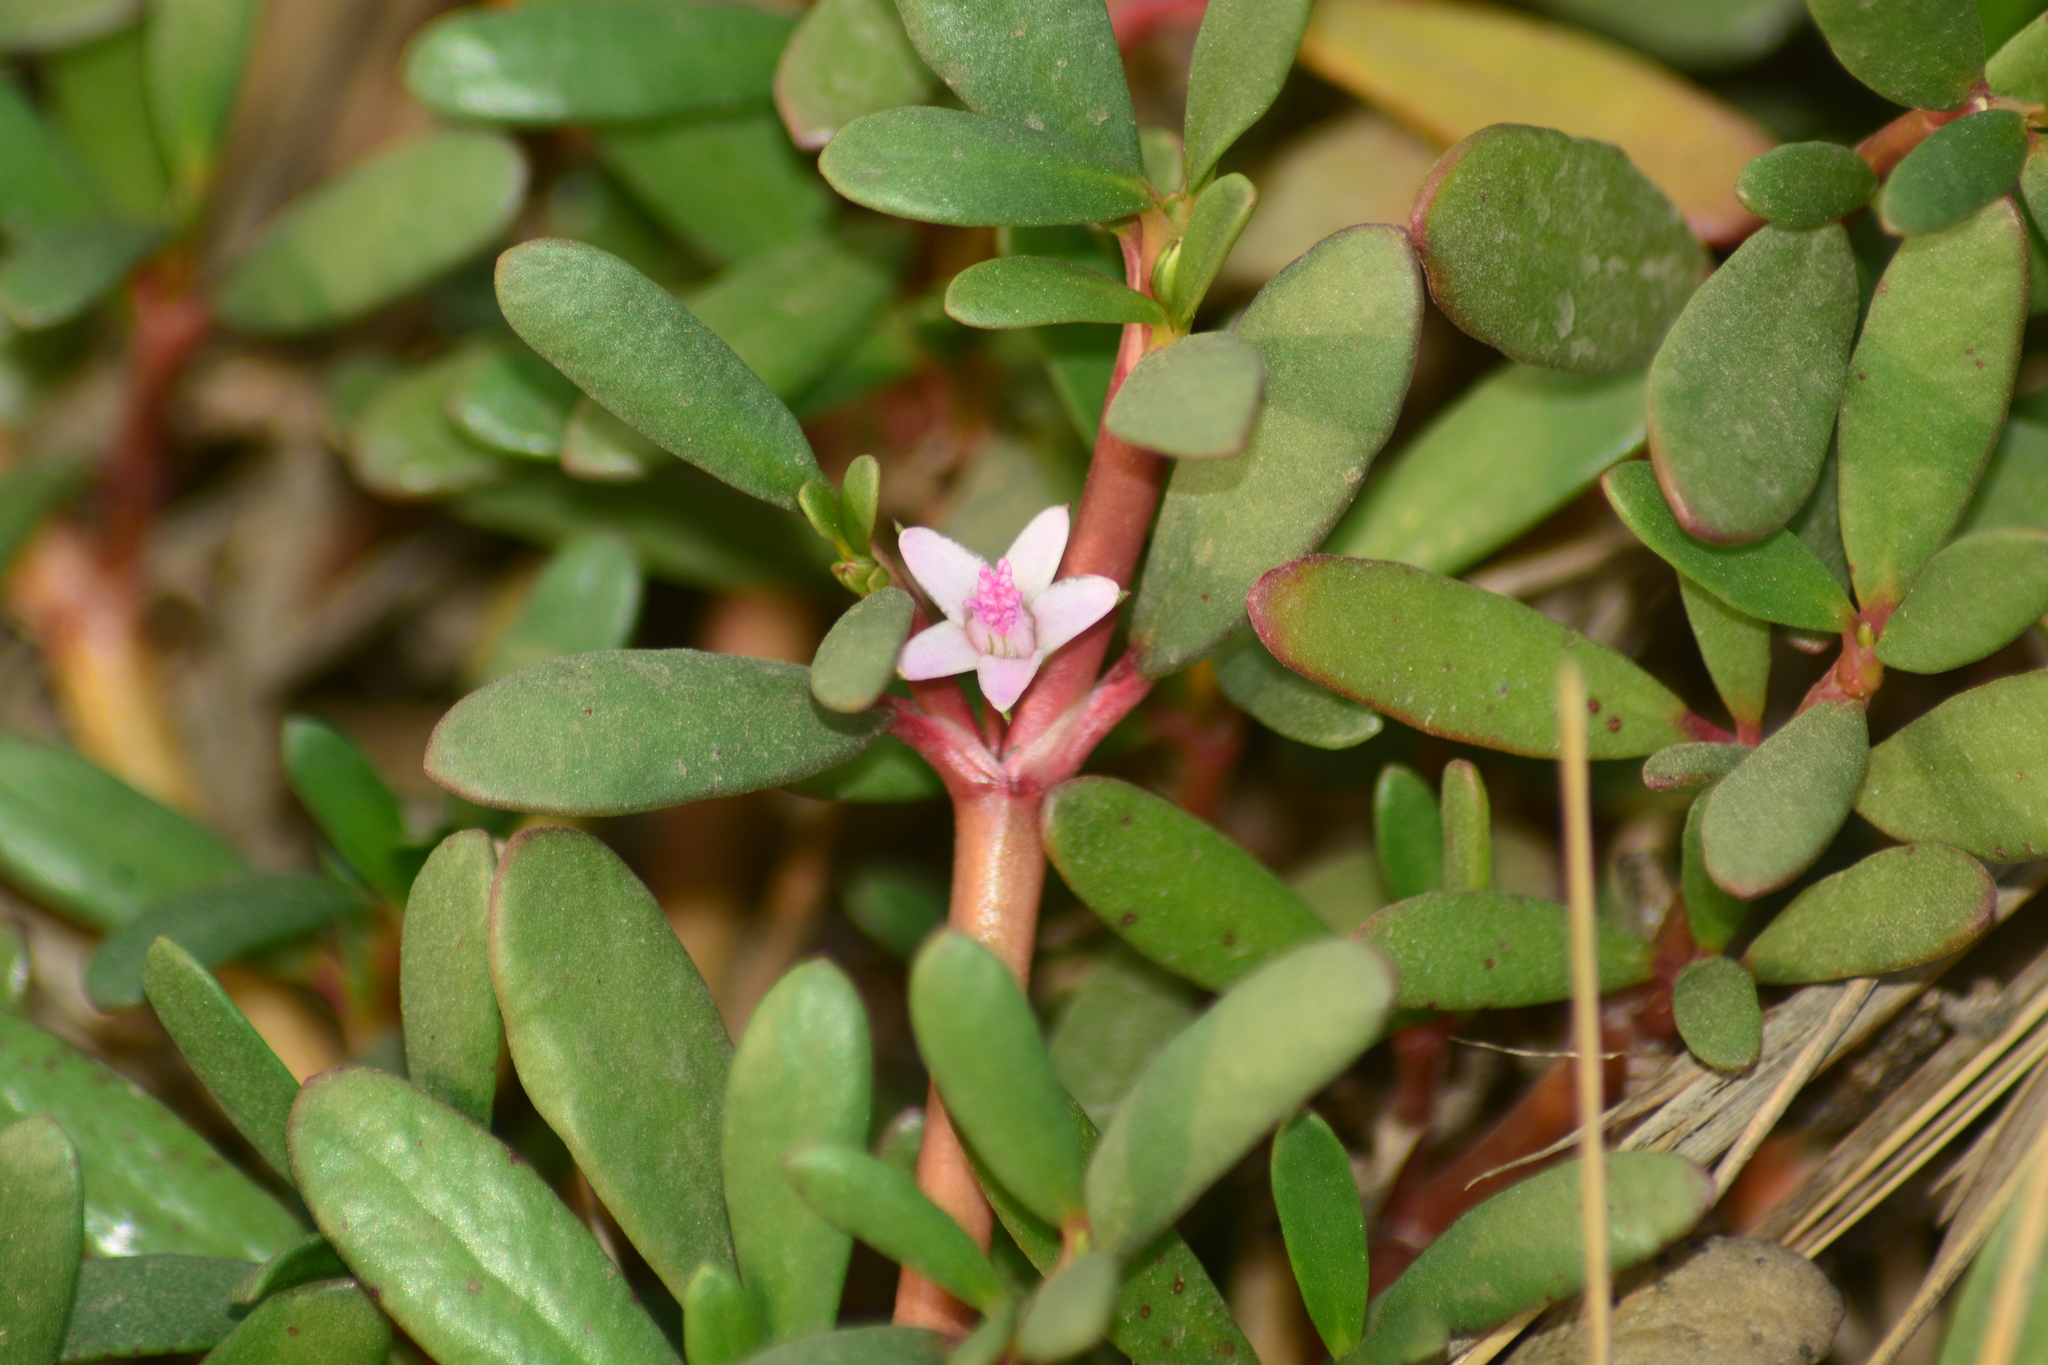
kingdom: Plantae
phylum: Tracheophyta
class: Magnoliopsida
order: Caryophyllales
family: Aizoaceae
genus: Sesuvium
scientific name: Sesuvium portulacastrum
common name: Sea-purslane
